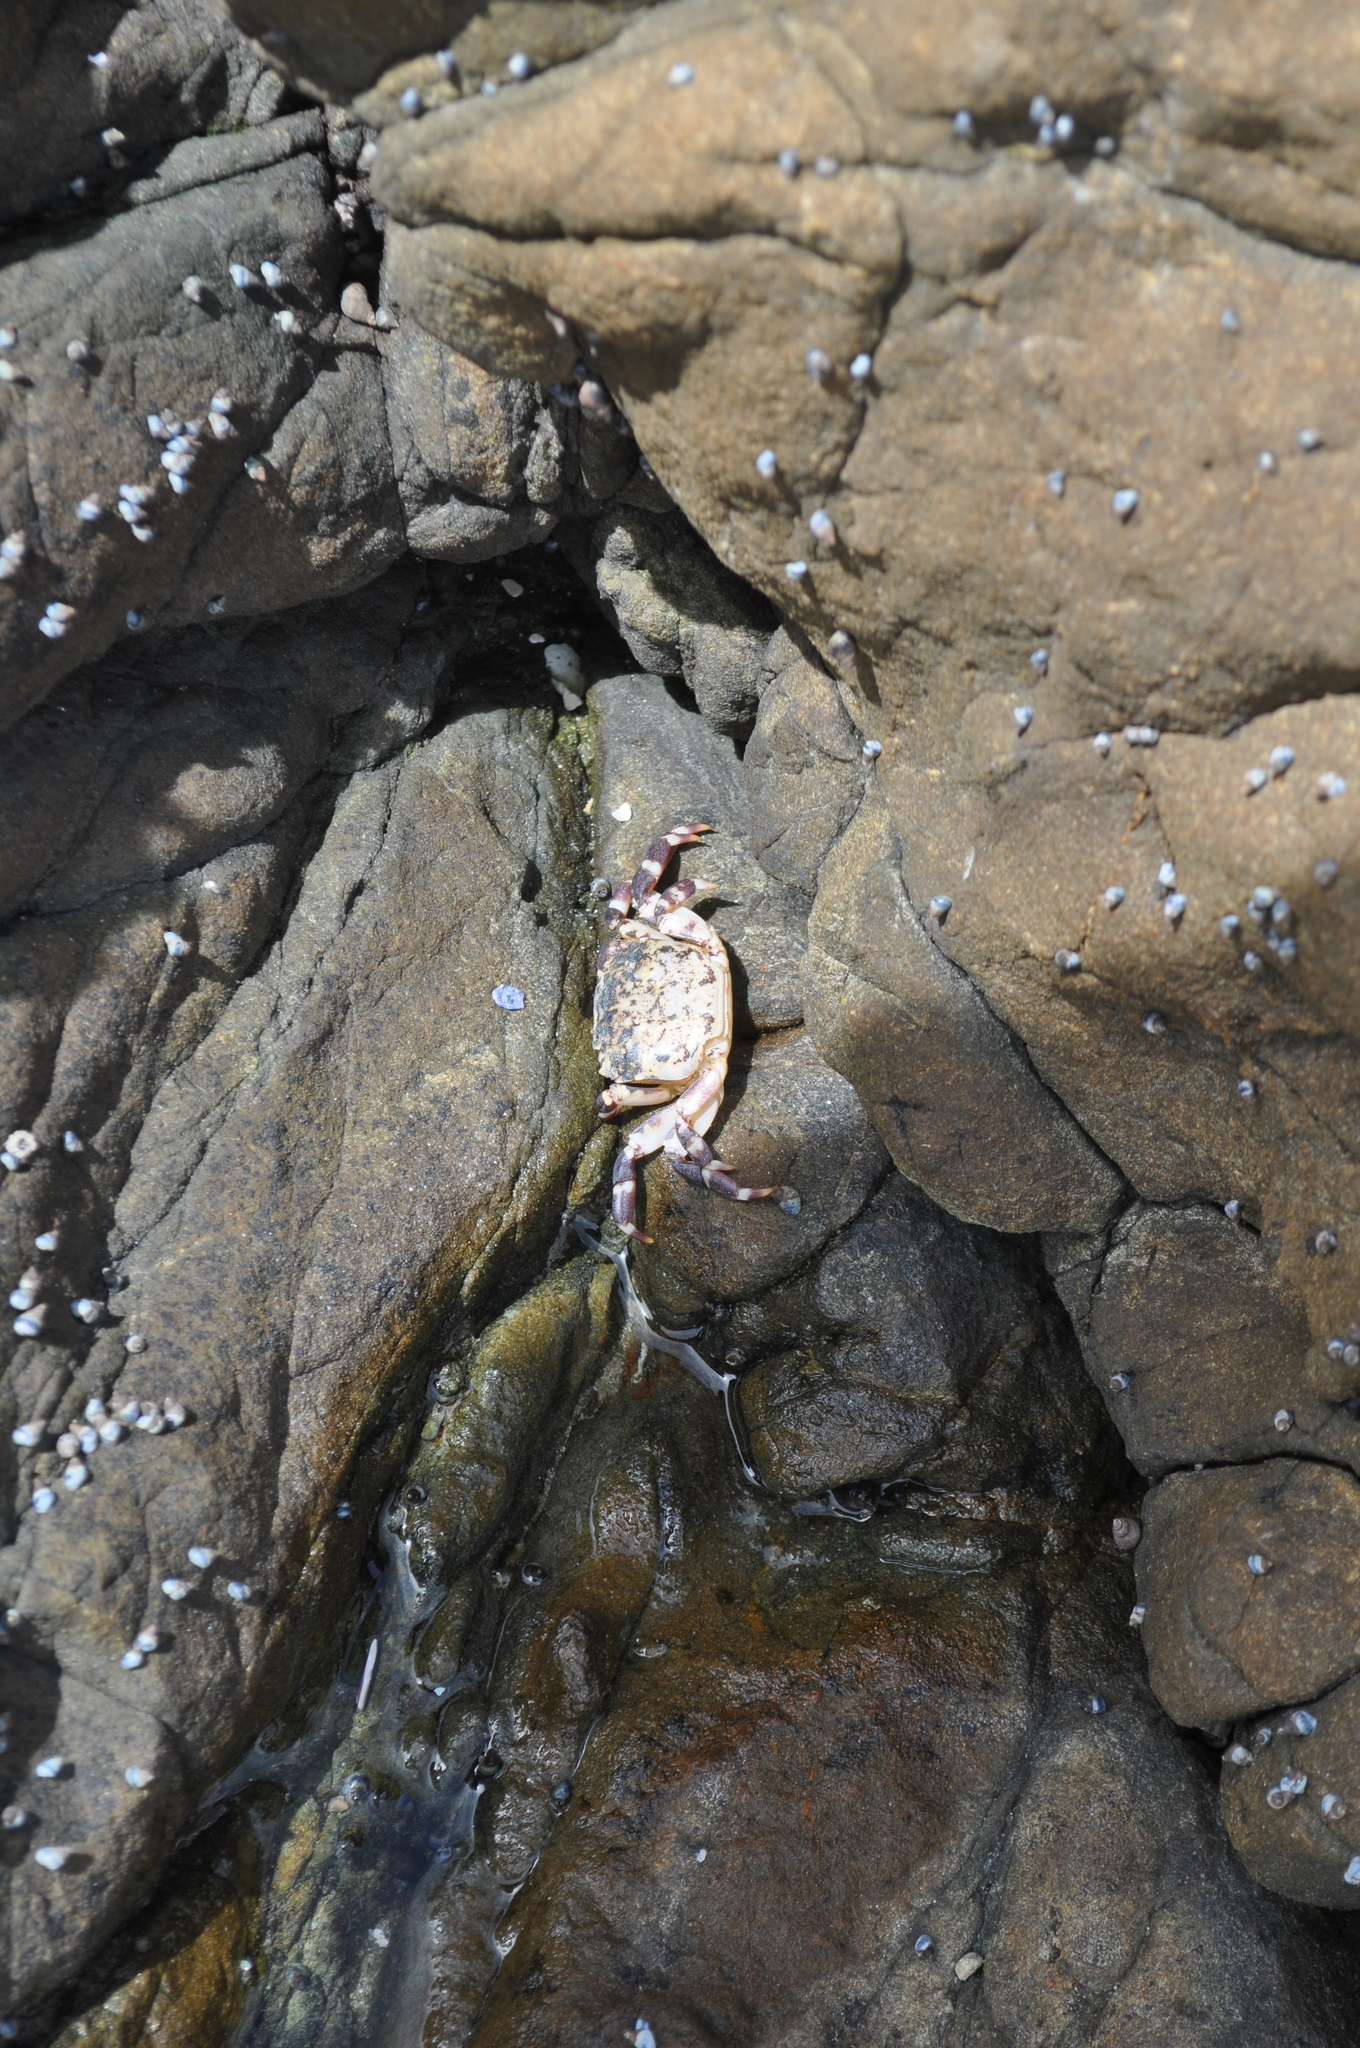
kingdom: Animalia
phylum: Arthropoda
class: Malacostraca
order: Decapoda
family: Varunidae
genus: Hemigrapsus
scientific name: Hemigrapsus sexdentatus
